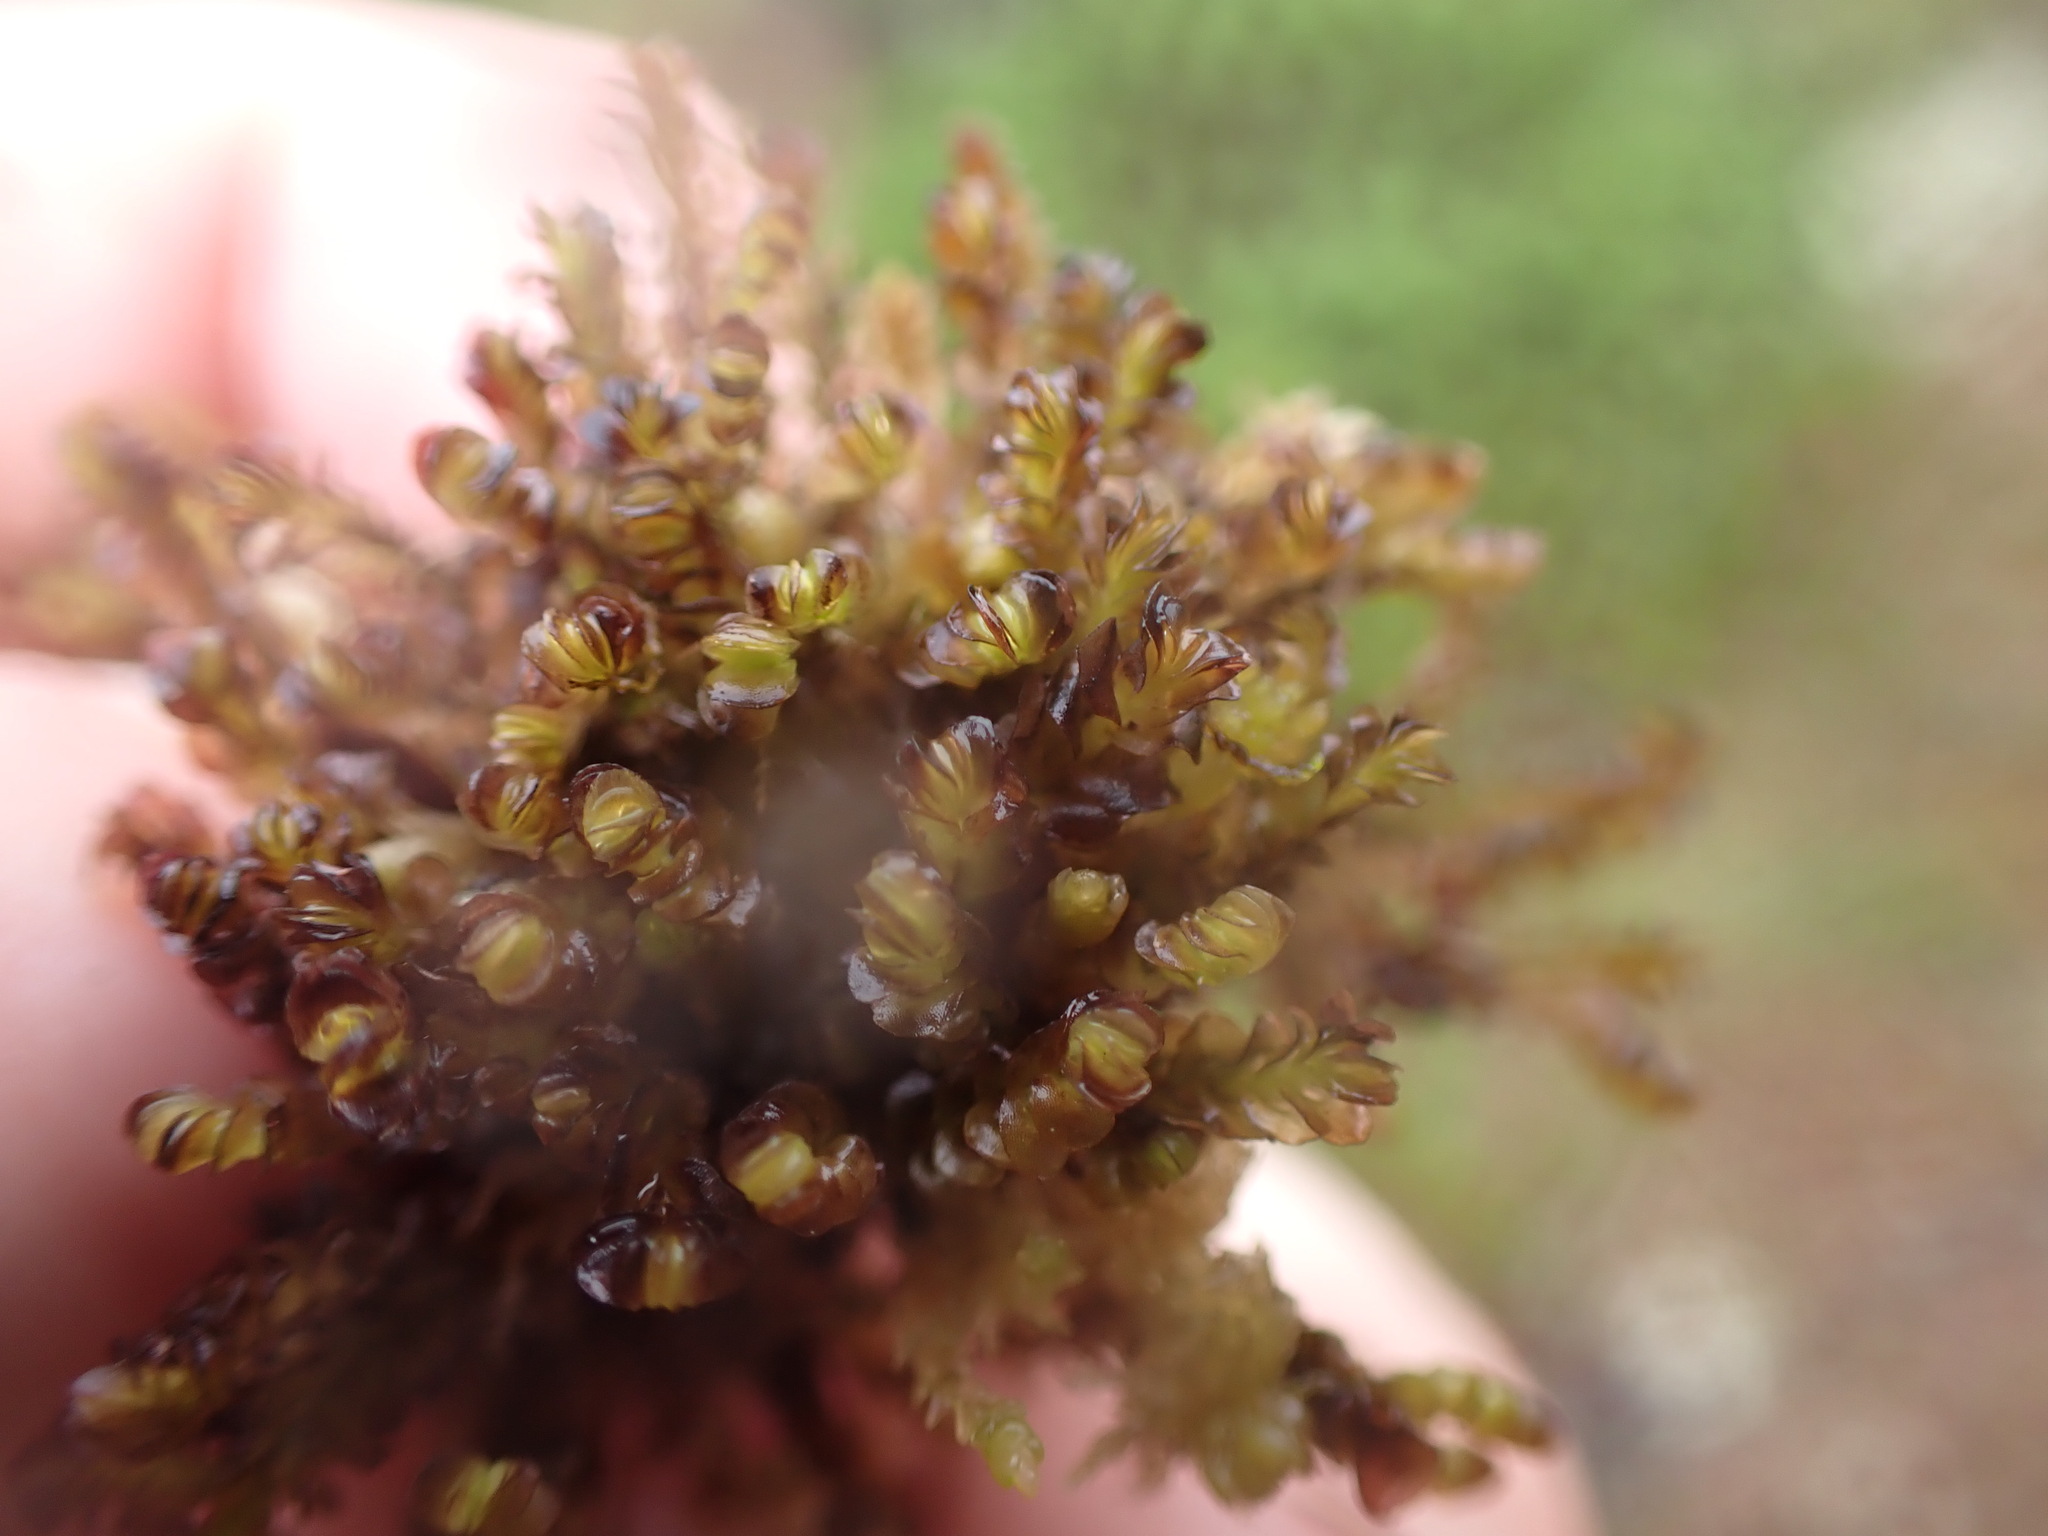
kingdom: Plantae
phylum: Marchantiophyta
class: Jungermanniopsida
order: Jungermanniales
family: Myliaceae
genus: Mylia
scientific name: Mylia taylorii
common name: Taylor s flapwort
